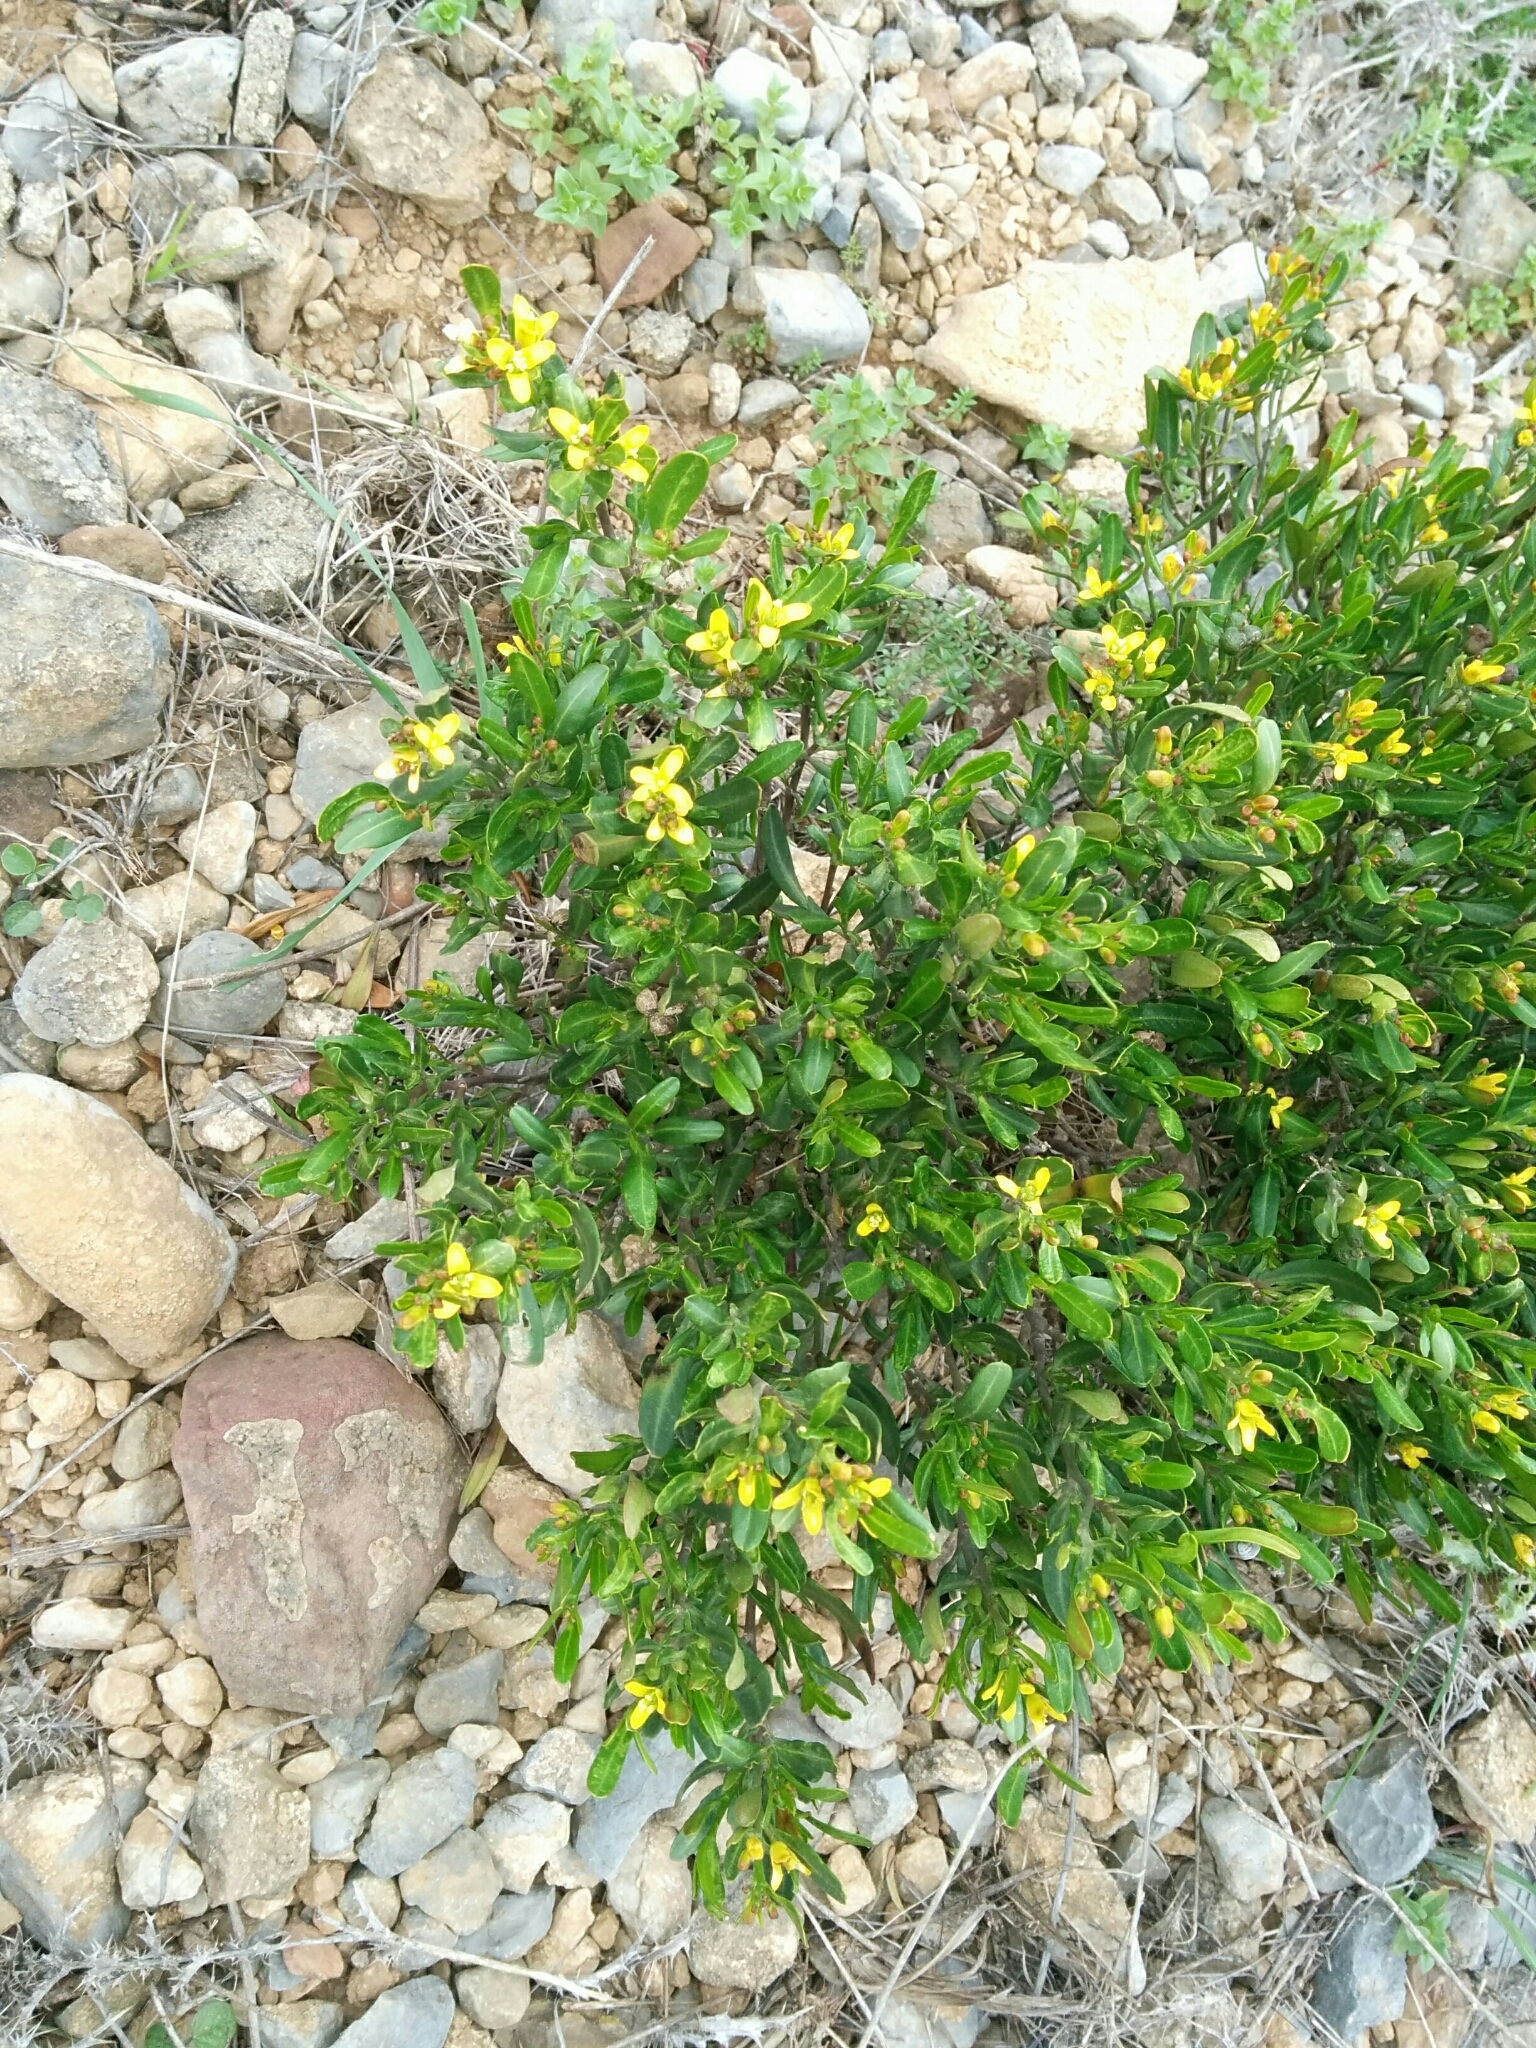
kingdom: Plantae
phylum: Tracheophyta
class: Magnoliopsida
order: Sapindales
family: Rutaceae
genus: Cneorum
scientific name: Cneorum tricoccon
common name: Spurge olive
